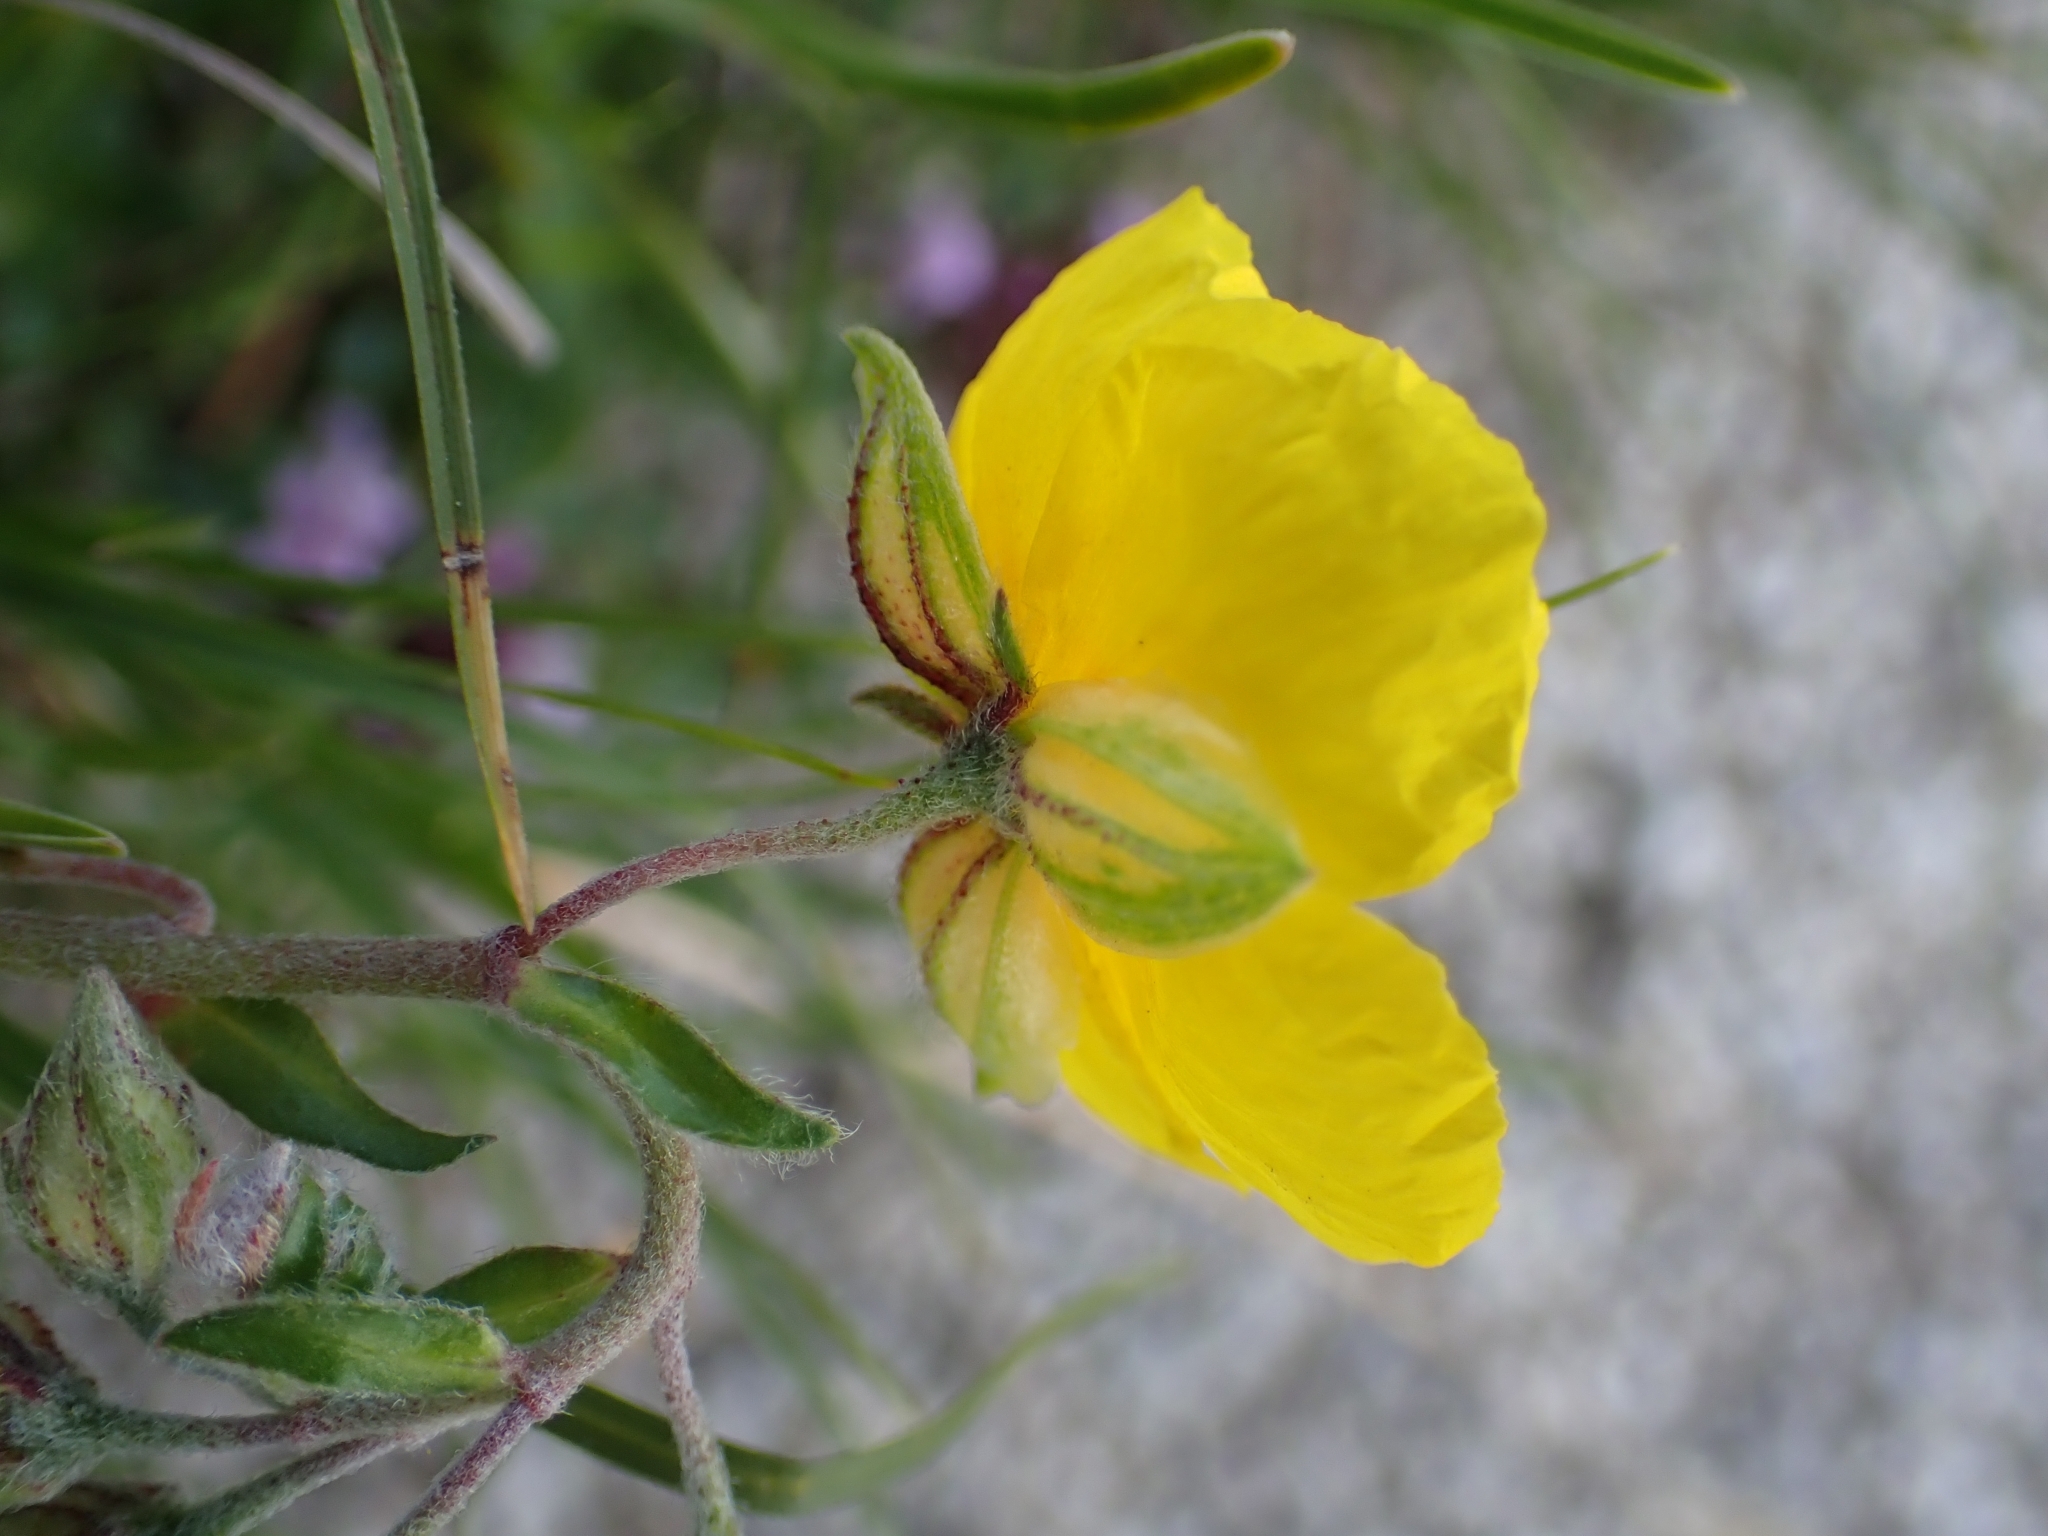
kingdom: Plantae
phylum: Tracheophyta
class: Magnoliopsida
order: Malvales
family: Cistaceae
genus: Helianthemum
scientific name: Helianthemum nummularium
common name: Common rock-rose
